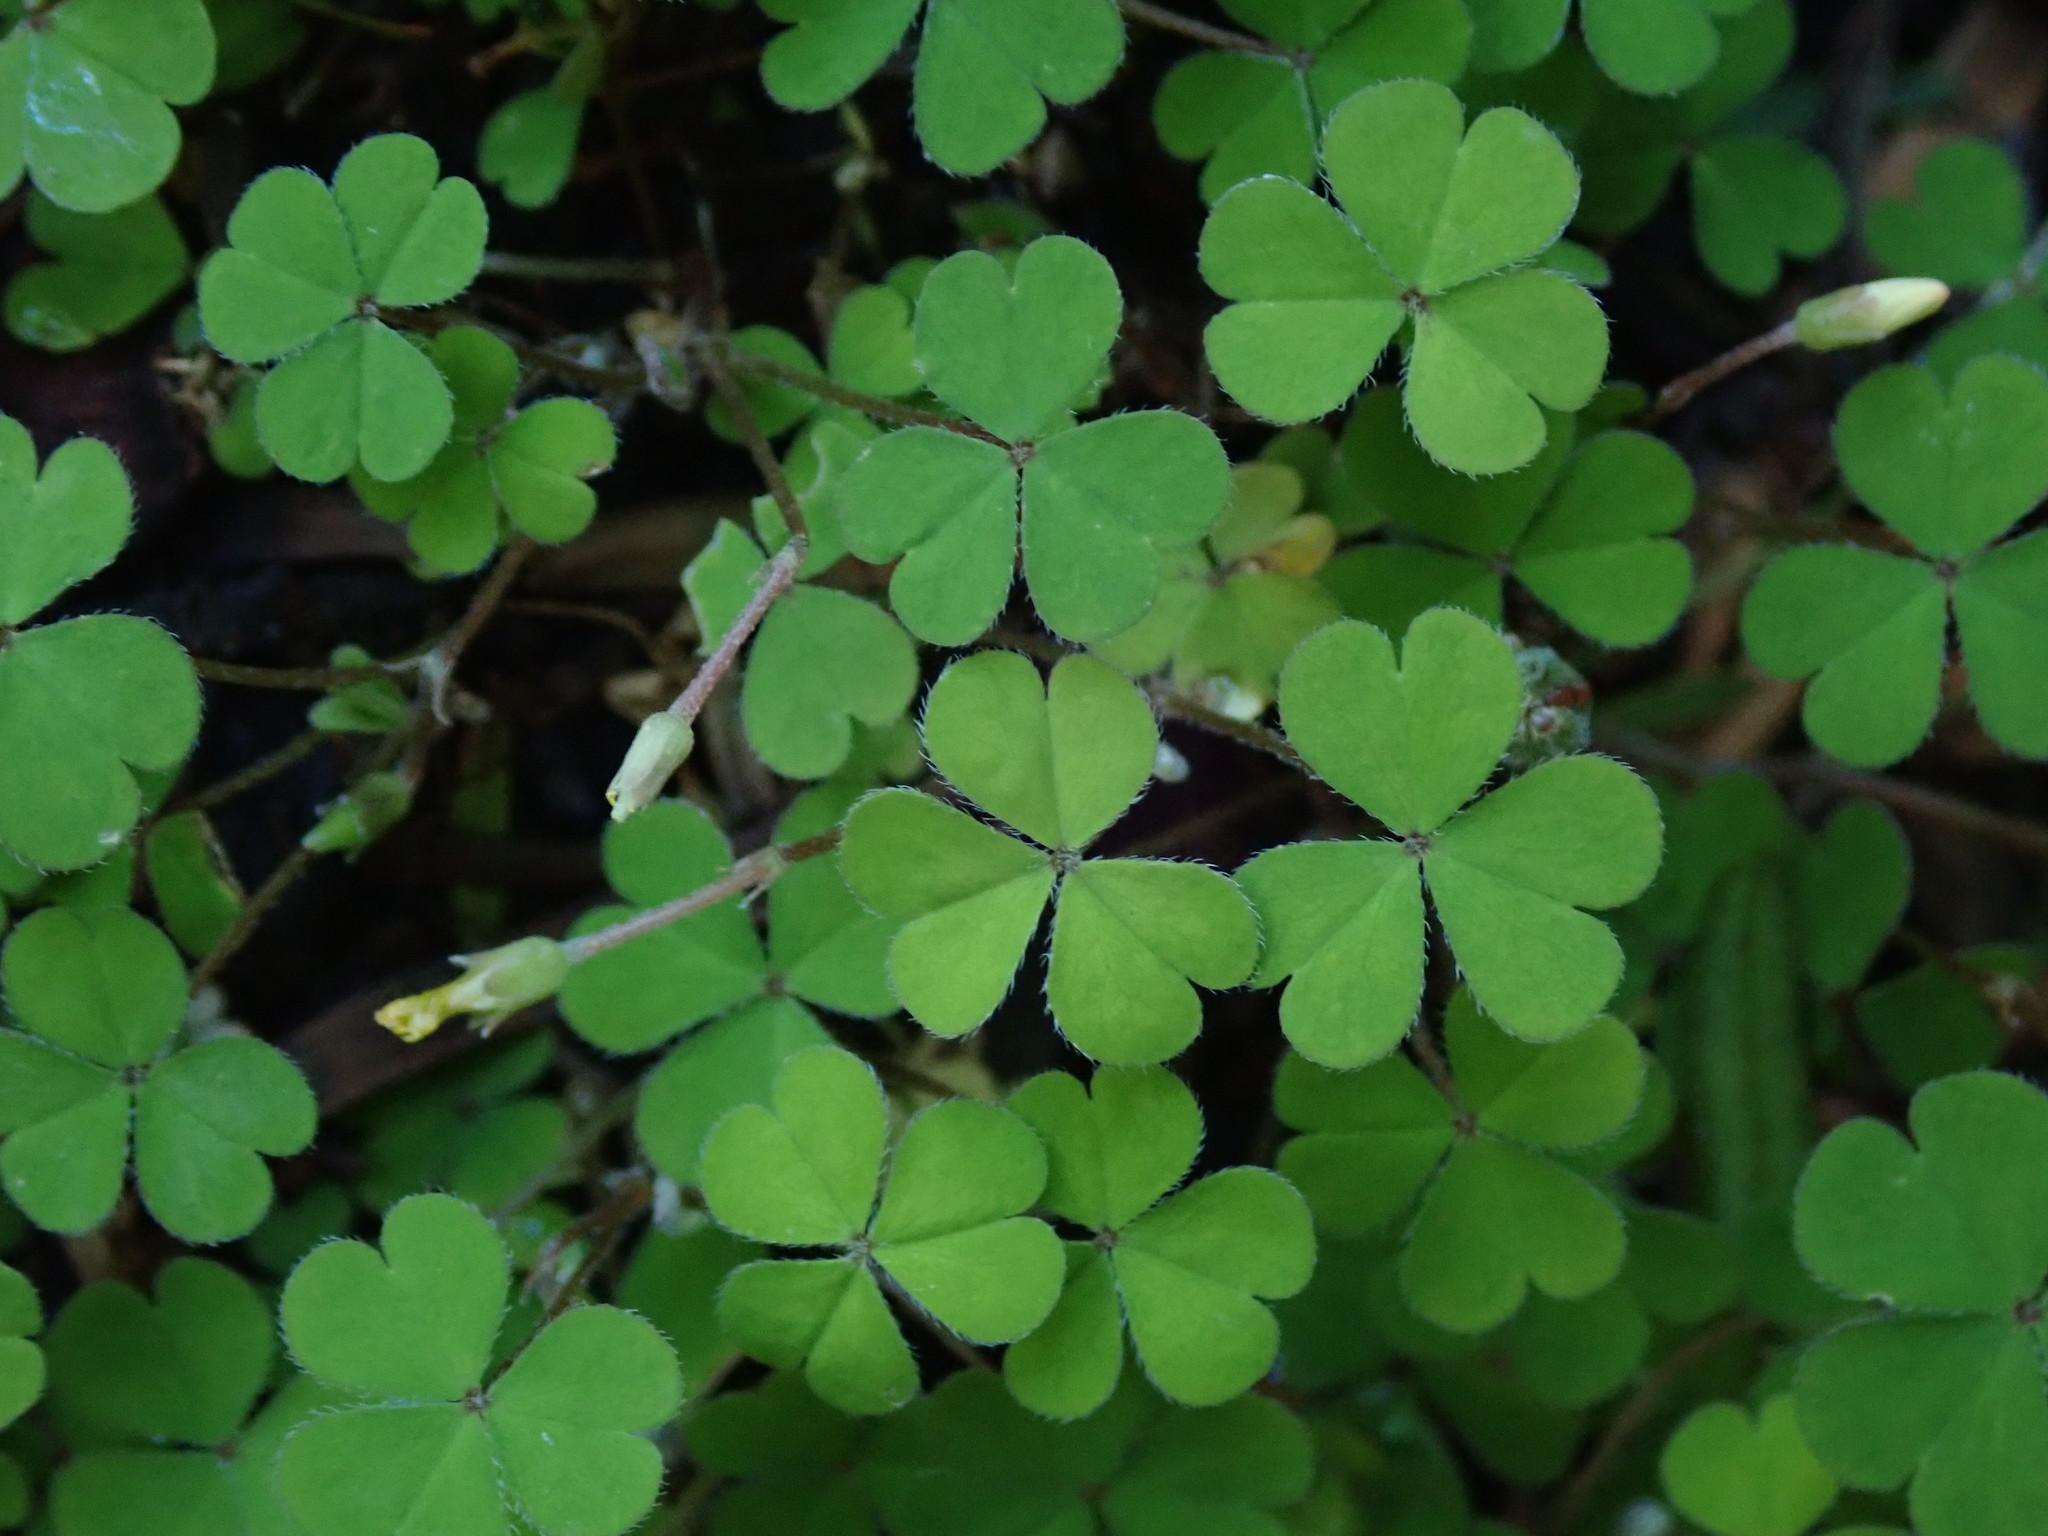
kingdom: Plantae
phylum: Tracheophyta
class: Magnoliopsida
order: Oxalidales
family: Oxalidaceae
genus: Oxalis
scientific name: Oxalis exilis
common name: Least yellow-sorrel
